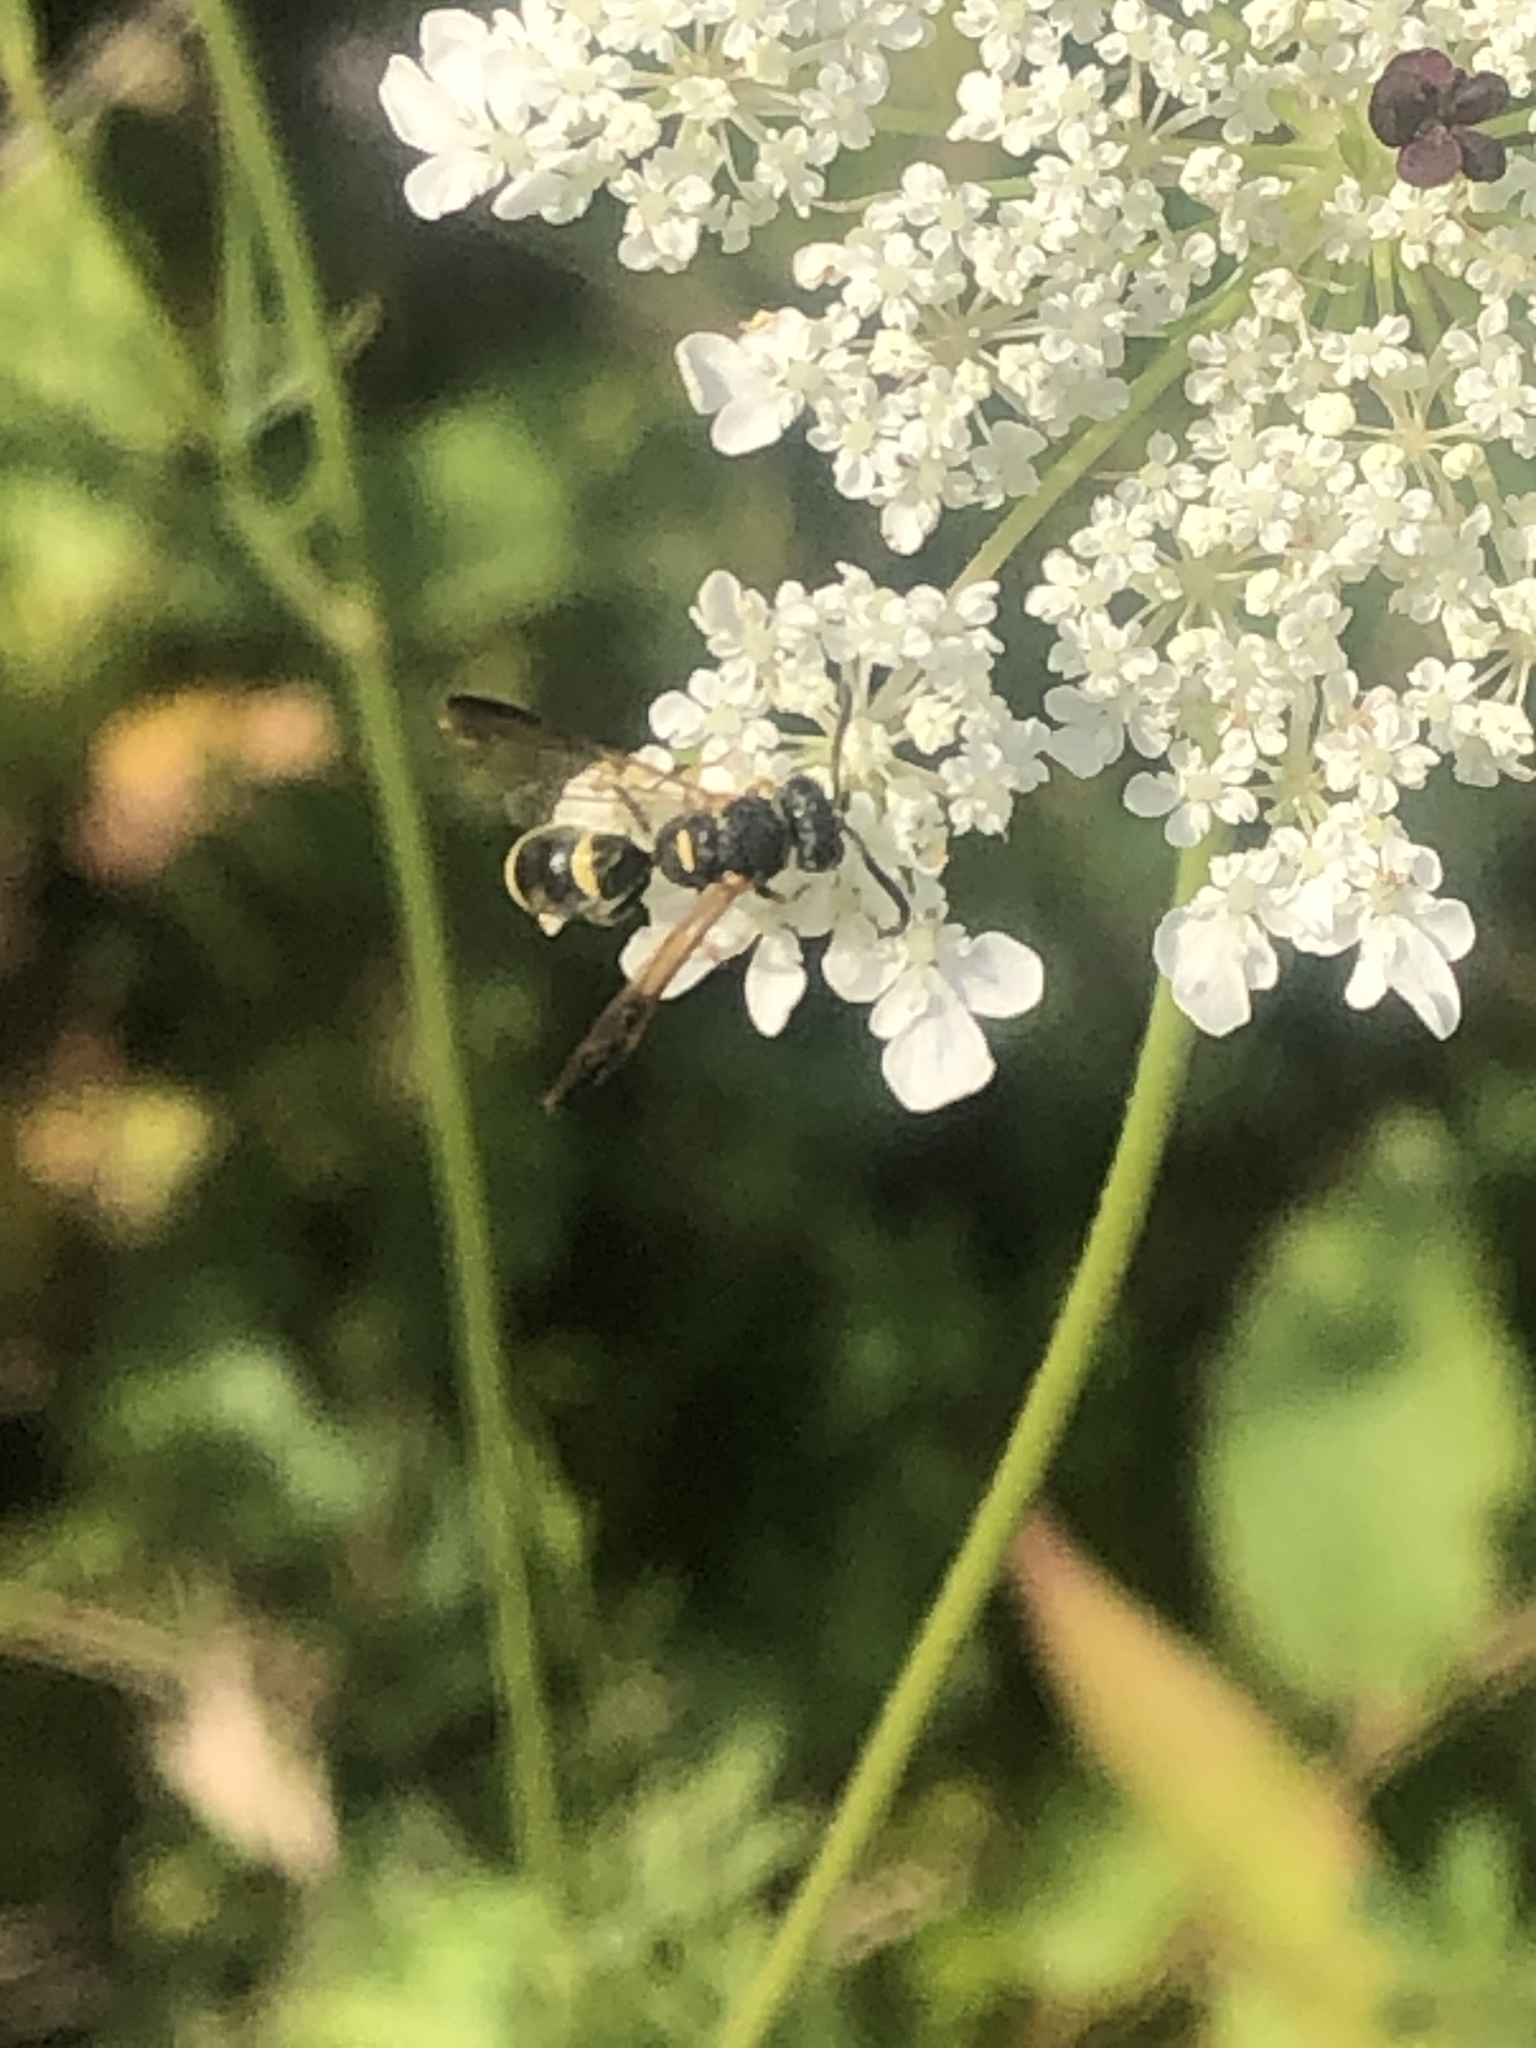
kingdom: Animalia
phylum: Arthropoda
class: Insecta
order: Hymenoptera
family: Eumenidae
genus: Parancistrocerus
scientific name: Parancistrocerus perennis
